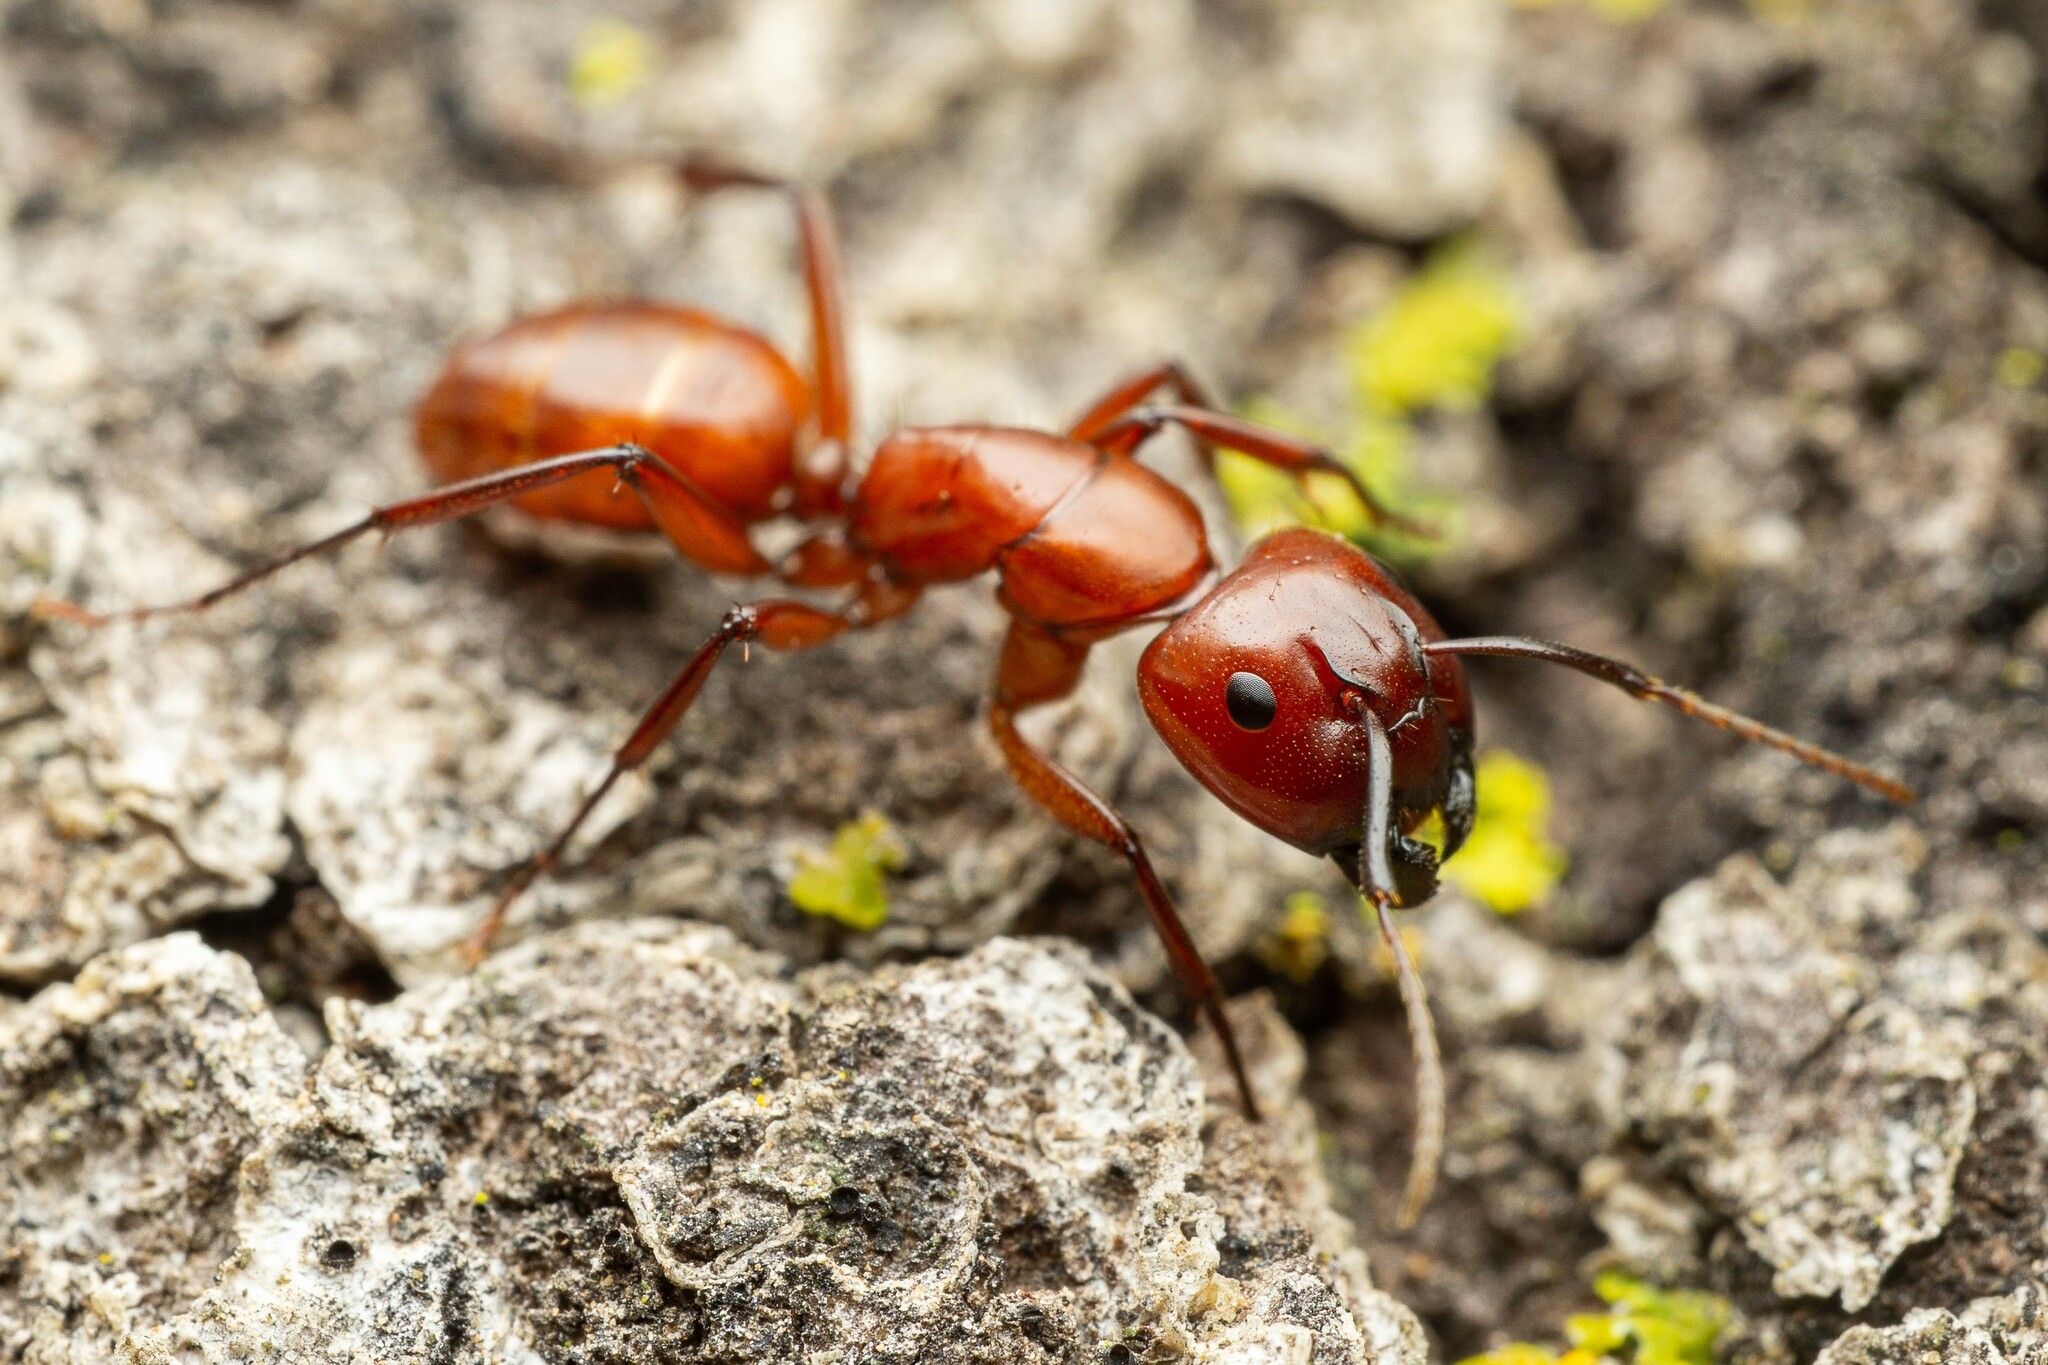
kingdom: Animalia
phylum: Arthropoda
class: Insecta
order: Hymenoptera
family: Formicidae
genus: Camponotus
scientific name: Camponotus schaefferi
